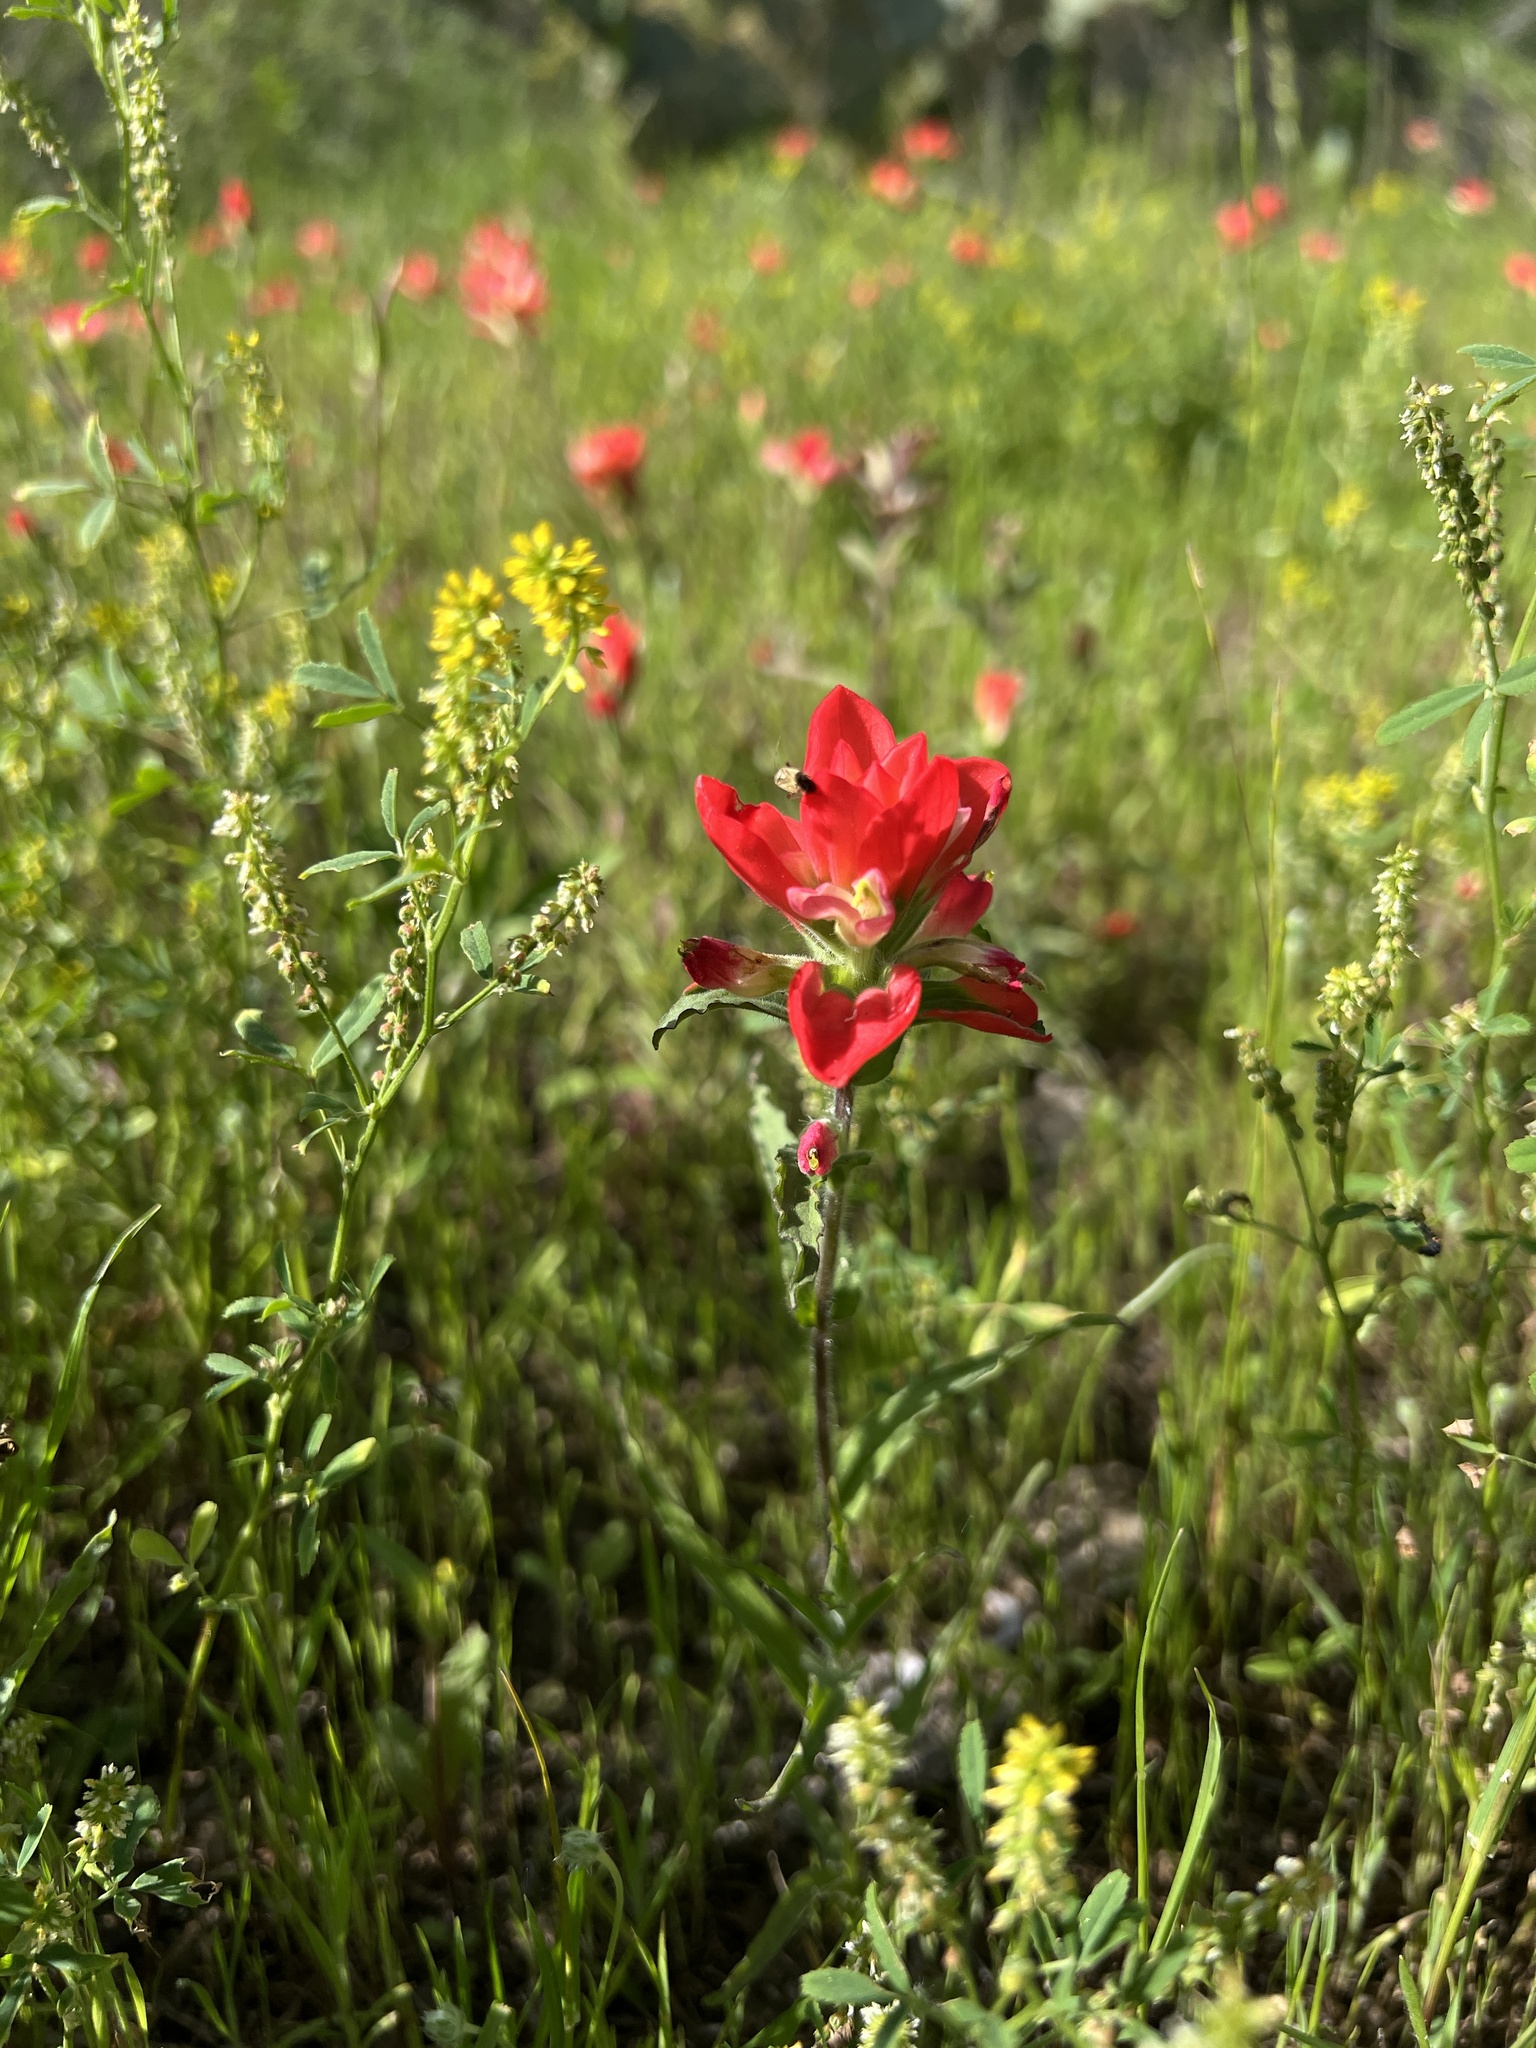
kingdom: Plantae
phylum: Tracheophyta
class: Magnoliopsida
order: Lamiales
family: Orobanchaceae
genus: Castilleja
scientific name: Castilleja indivisa
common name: Texas paintbrush
